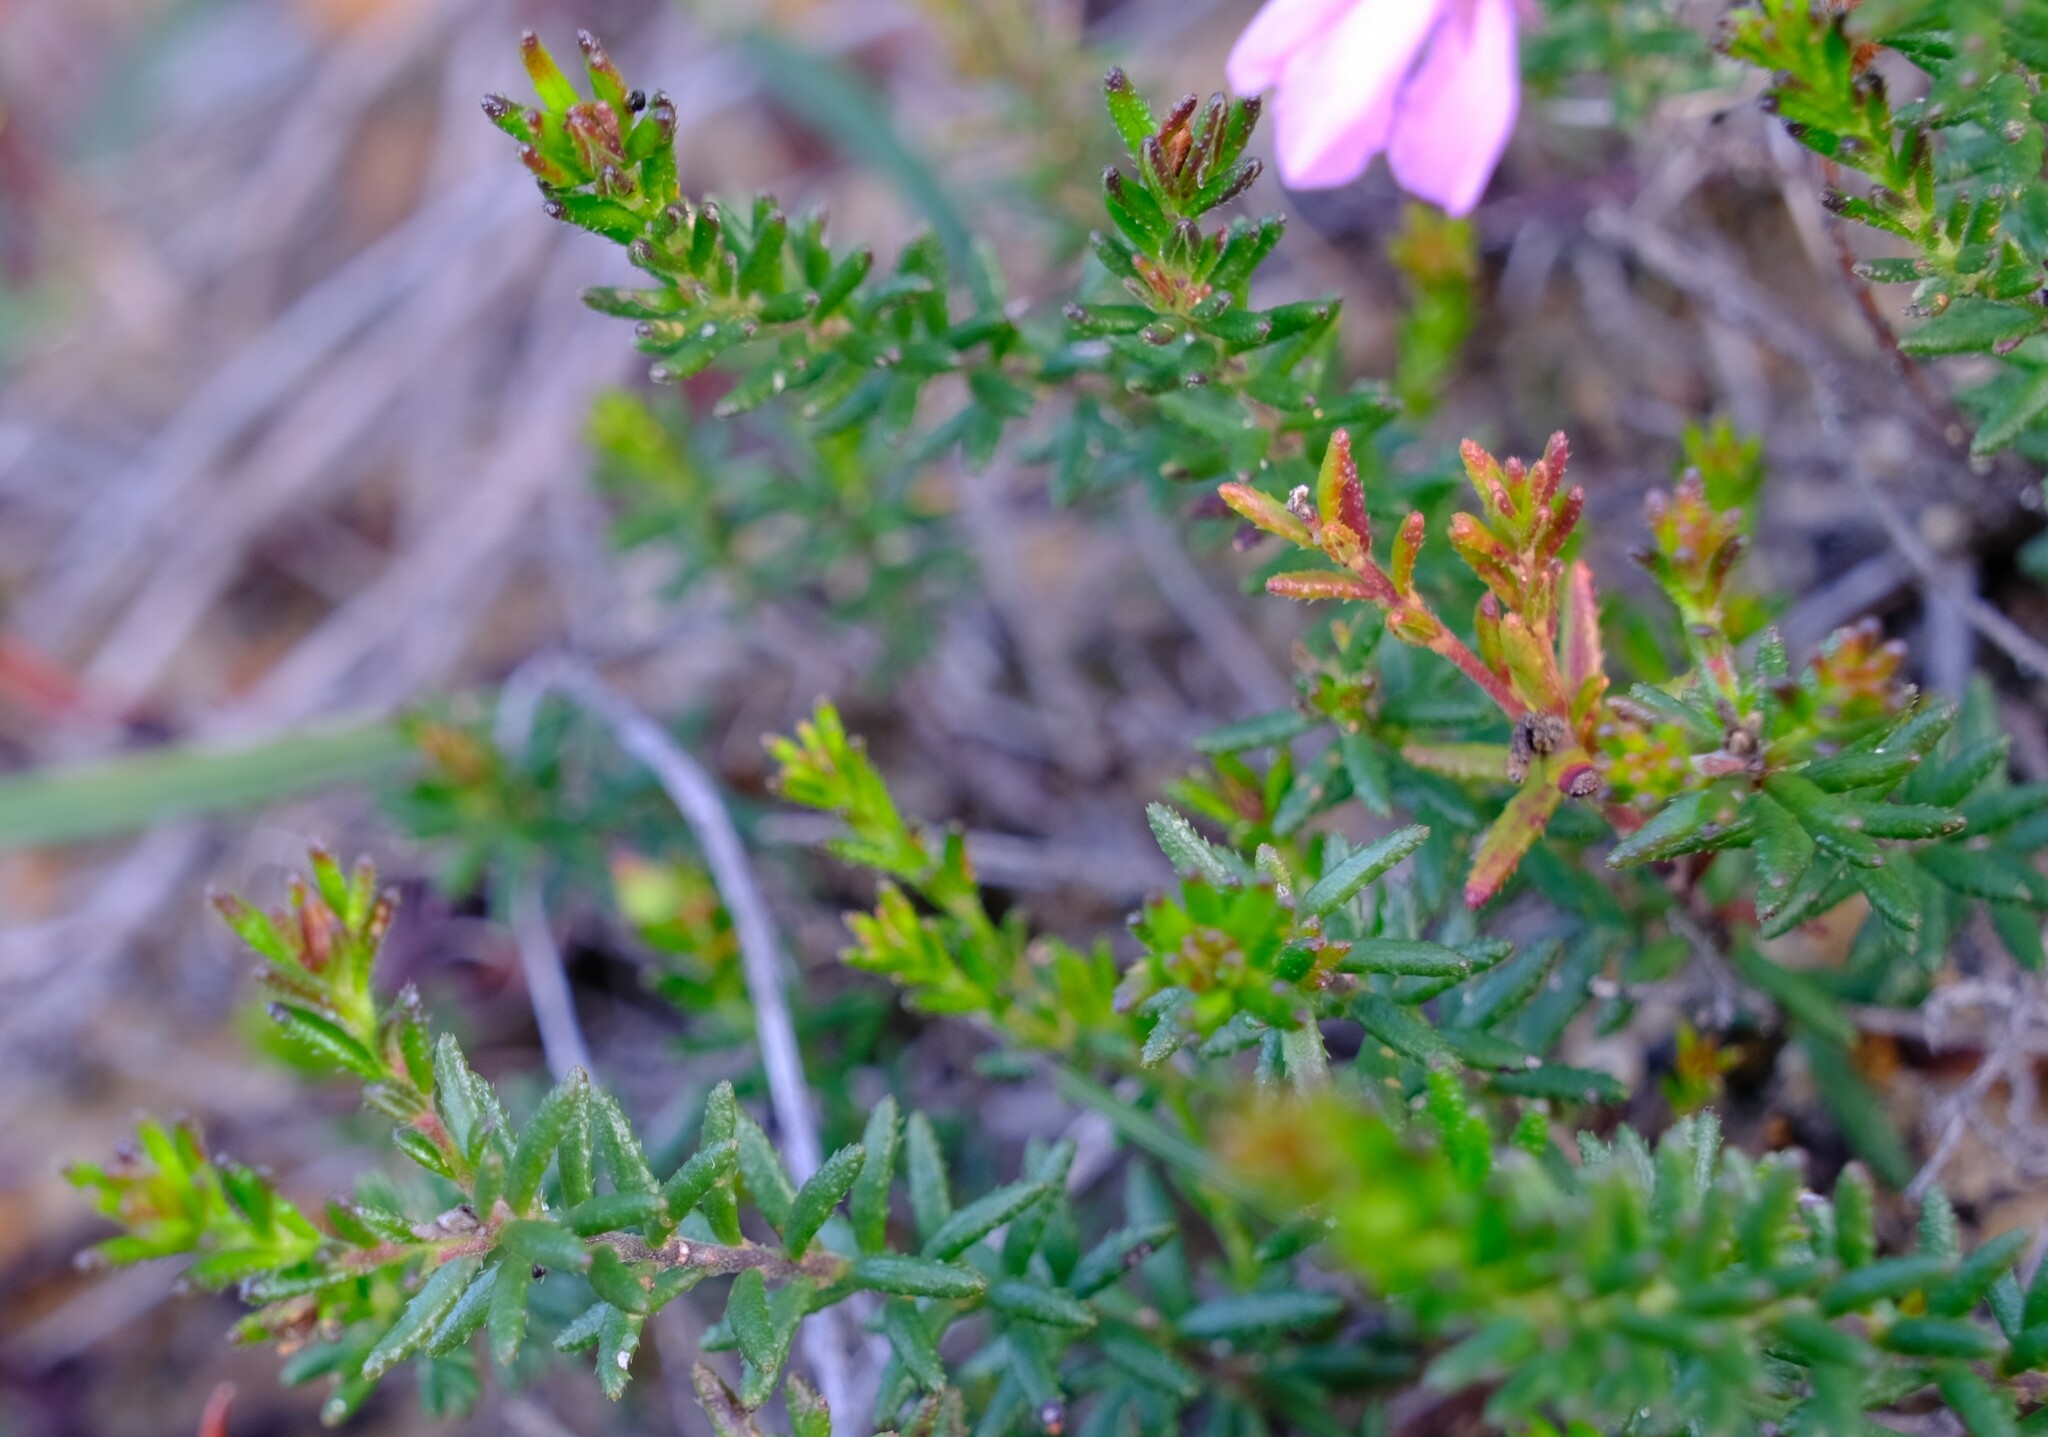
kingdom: Plantae
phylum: Tracheophyta
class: Magnoliopsida
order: Oxalidales
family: Elaeocarpaceae
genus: Tetratheca
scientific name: Tetratheca confertifolia
